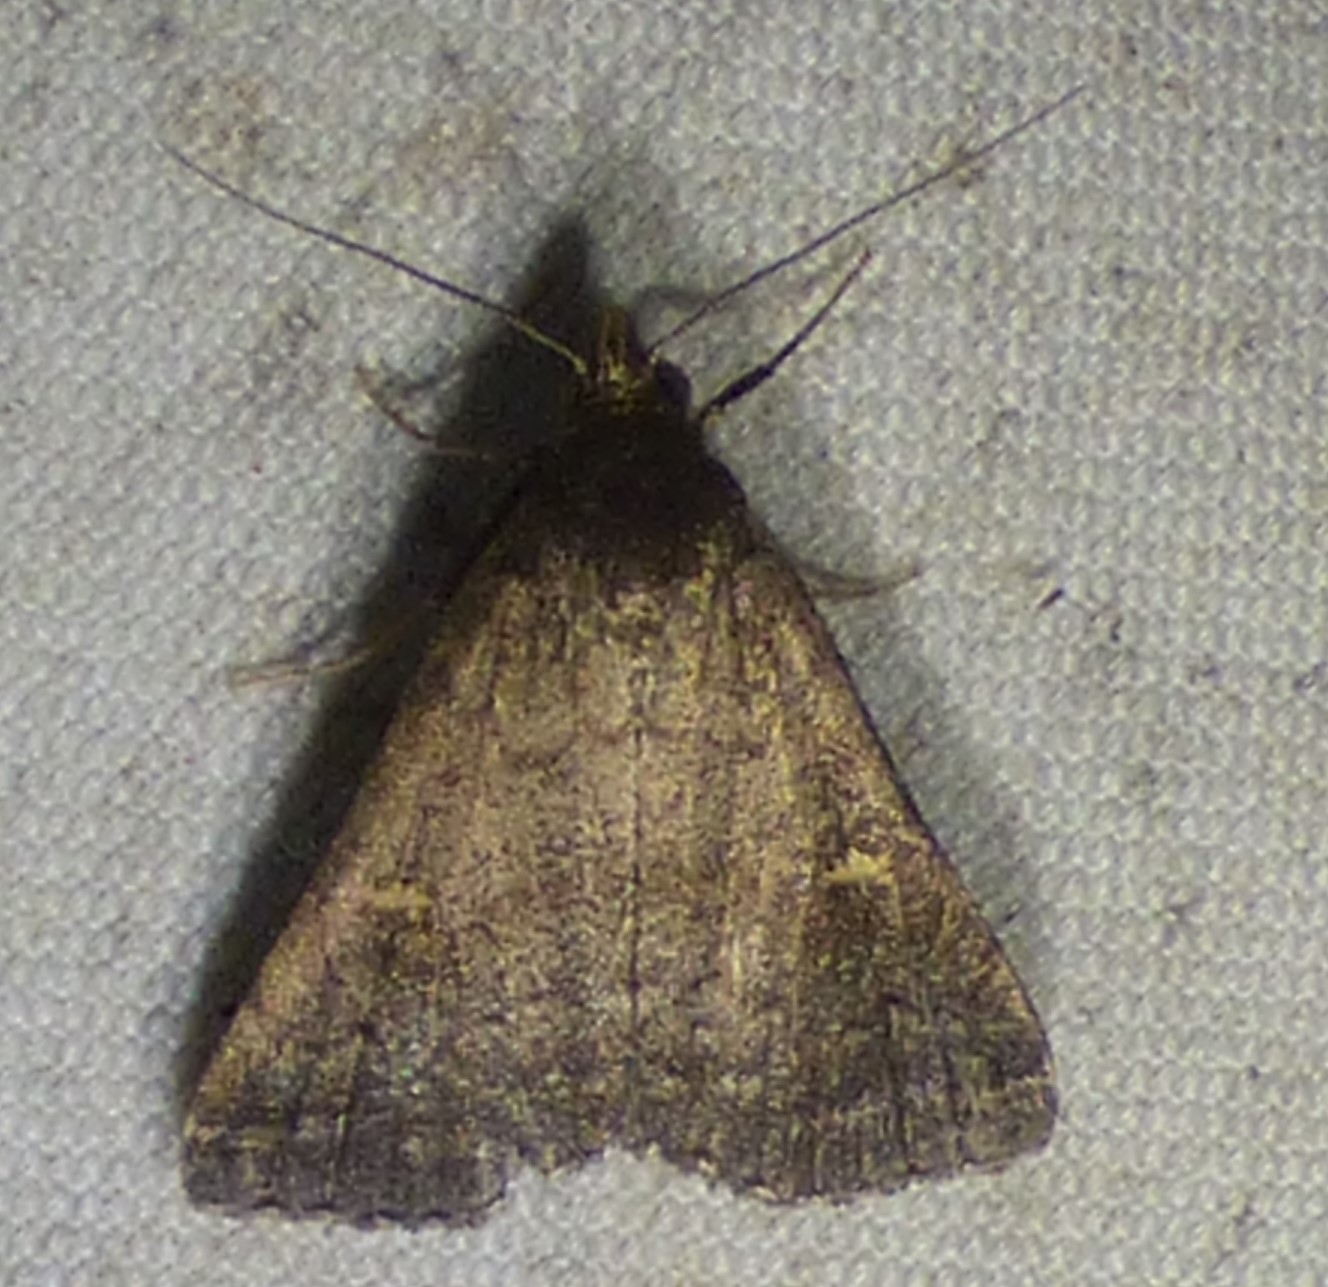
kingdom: Animalia
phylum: Arthropoda
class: Insecta
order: Lepidoptera
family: Erebidae
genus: Tetanolita
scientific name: Tetanolita mynesalis
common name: Smoky tetanolita moth
